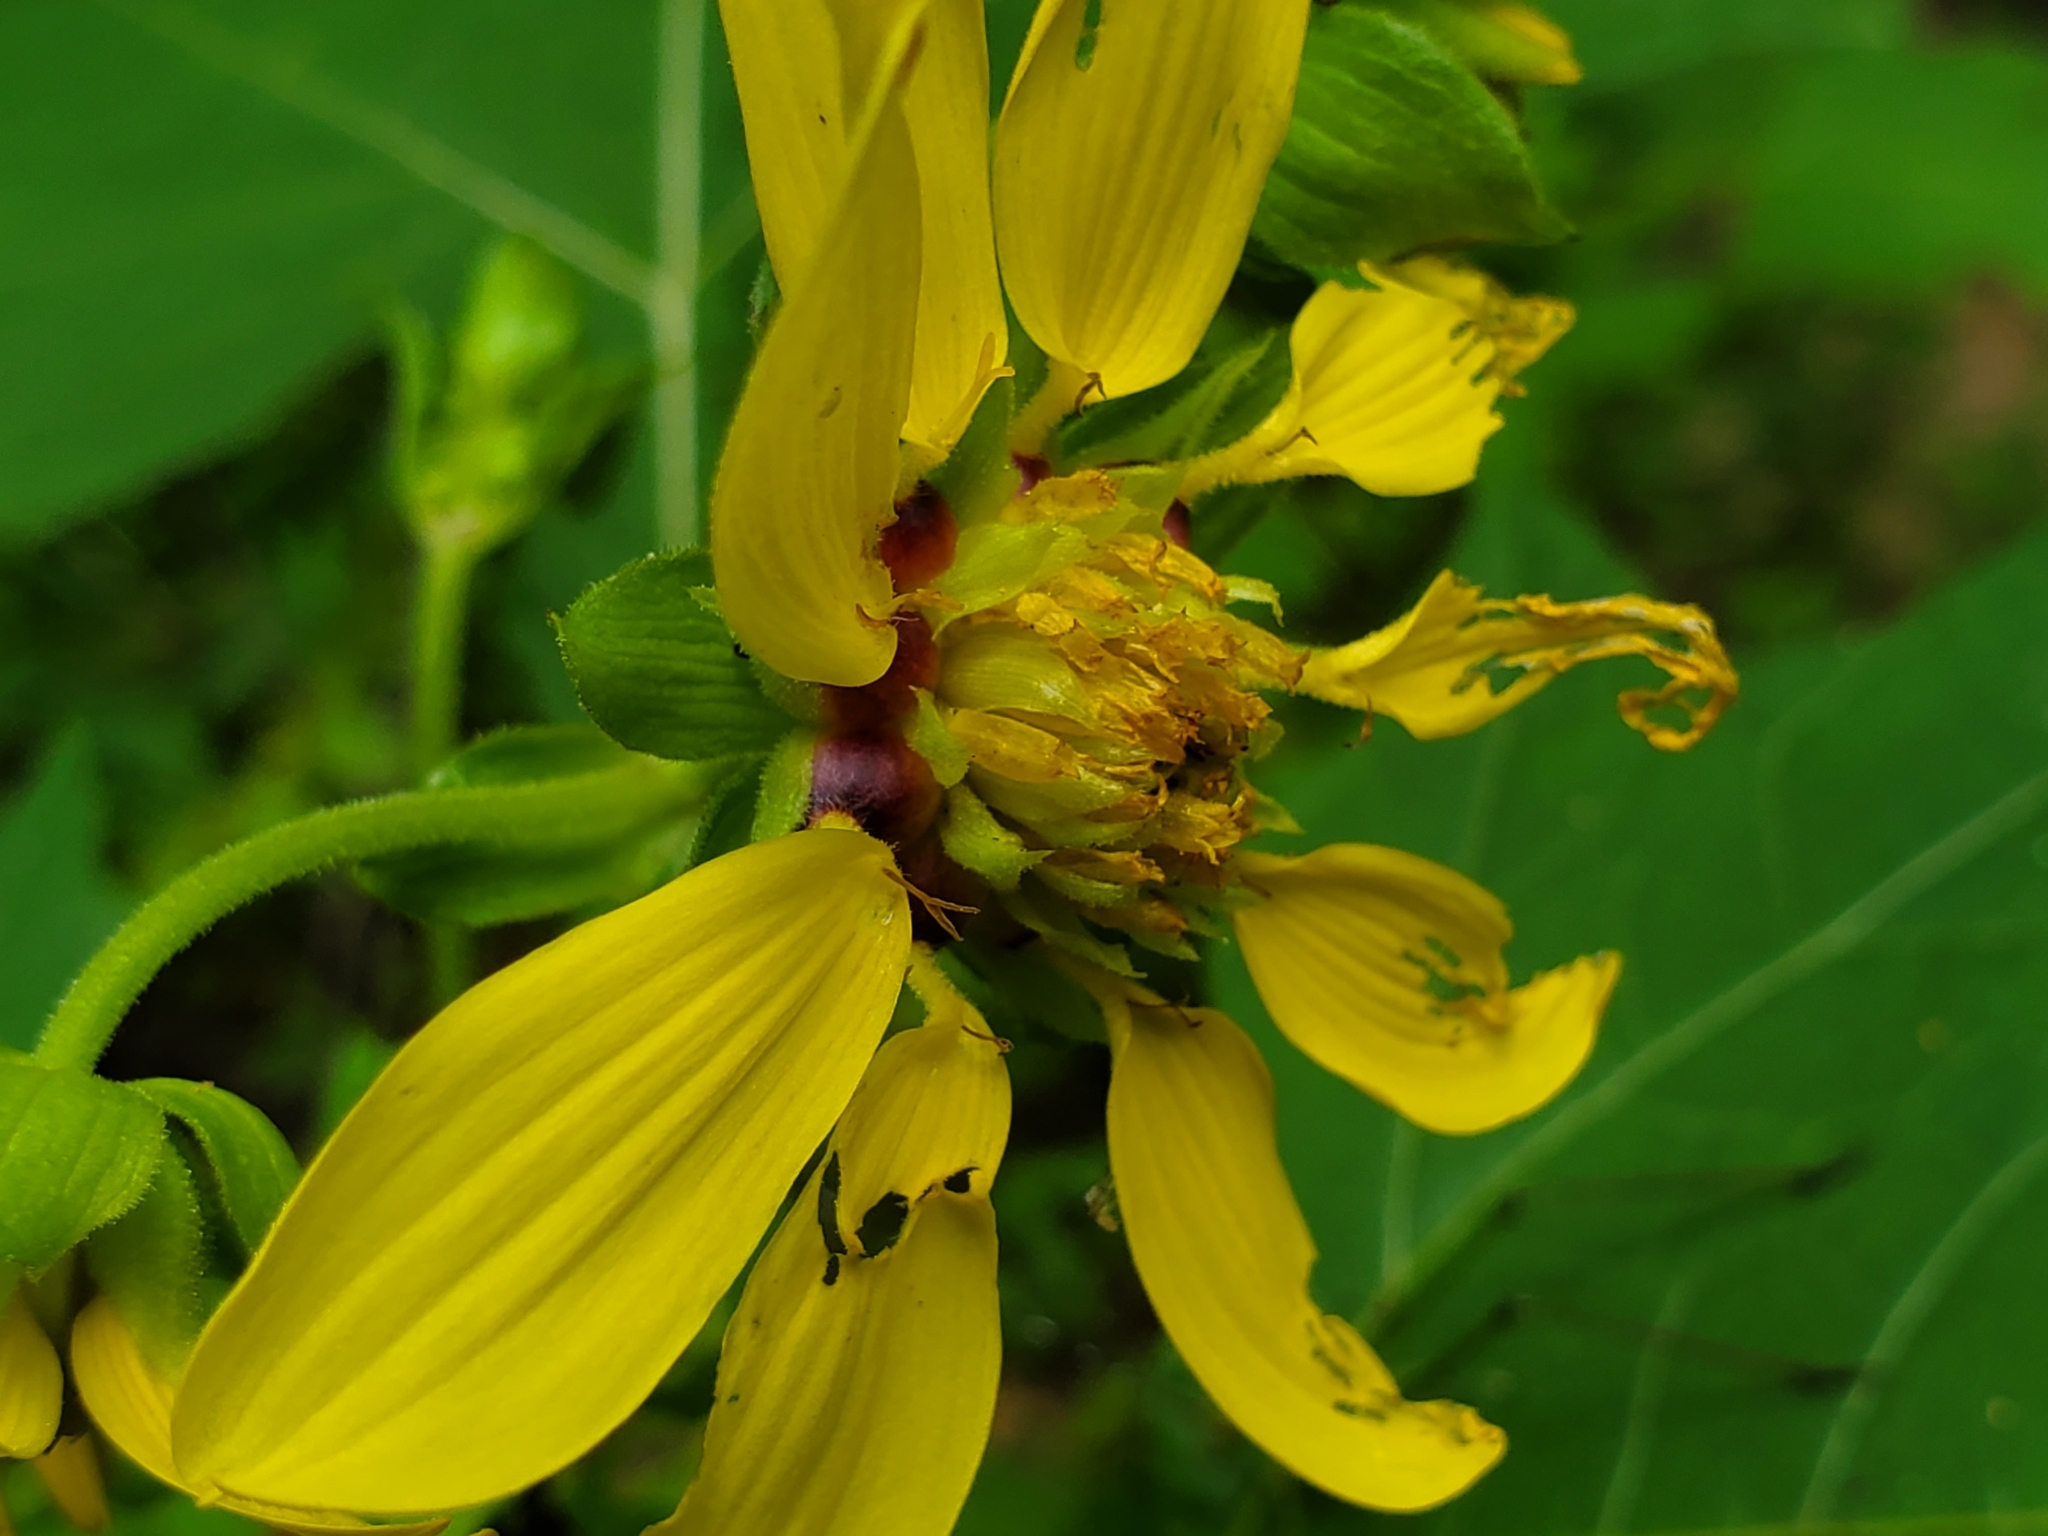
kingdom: Plantae
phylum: Tracheophyta
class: Magnoliopsida
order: Asterales
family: Asteraceae
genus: Smallanthus
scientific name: Smallanthus uvedalia
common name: Bear's-foot
